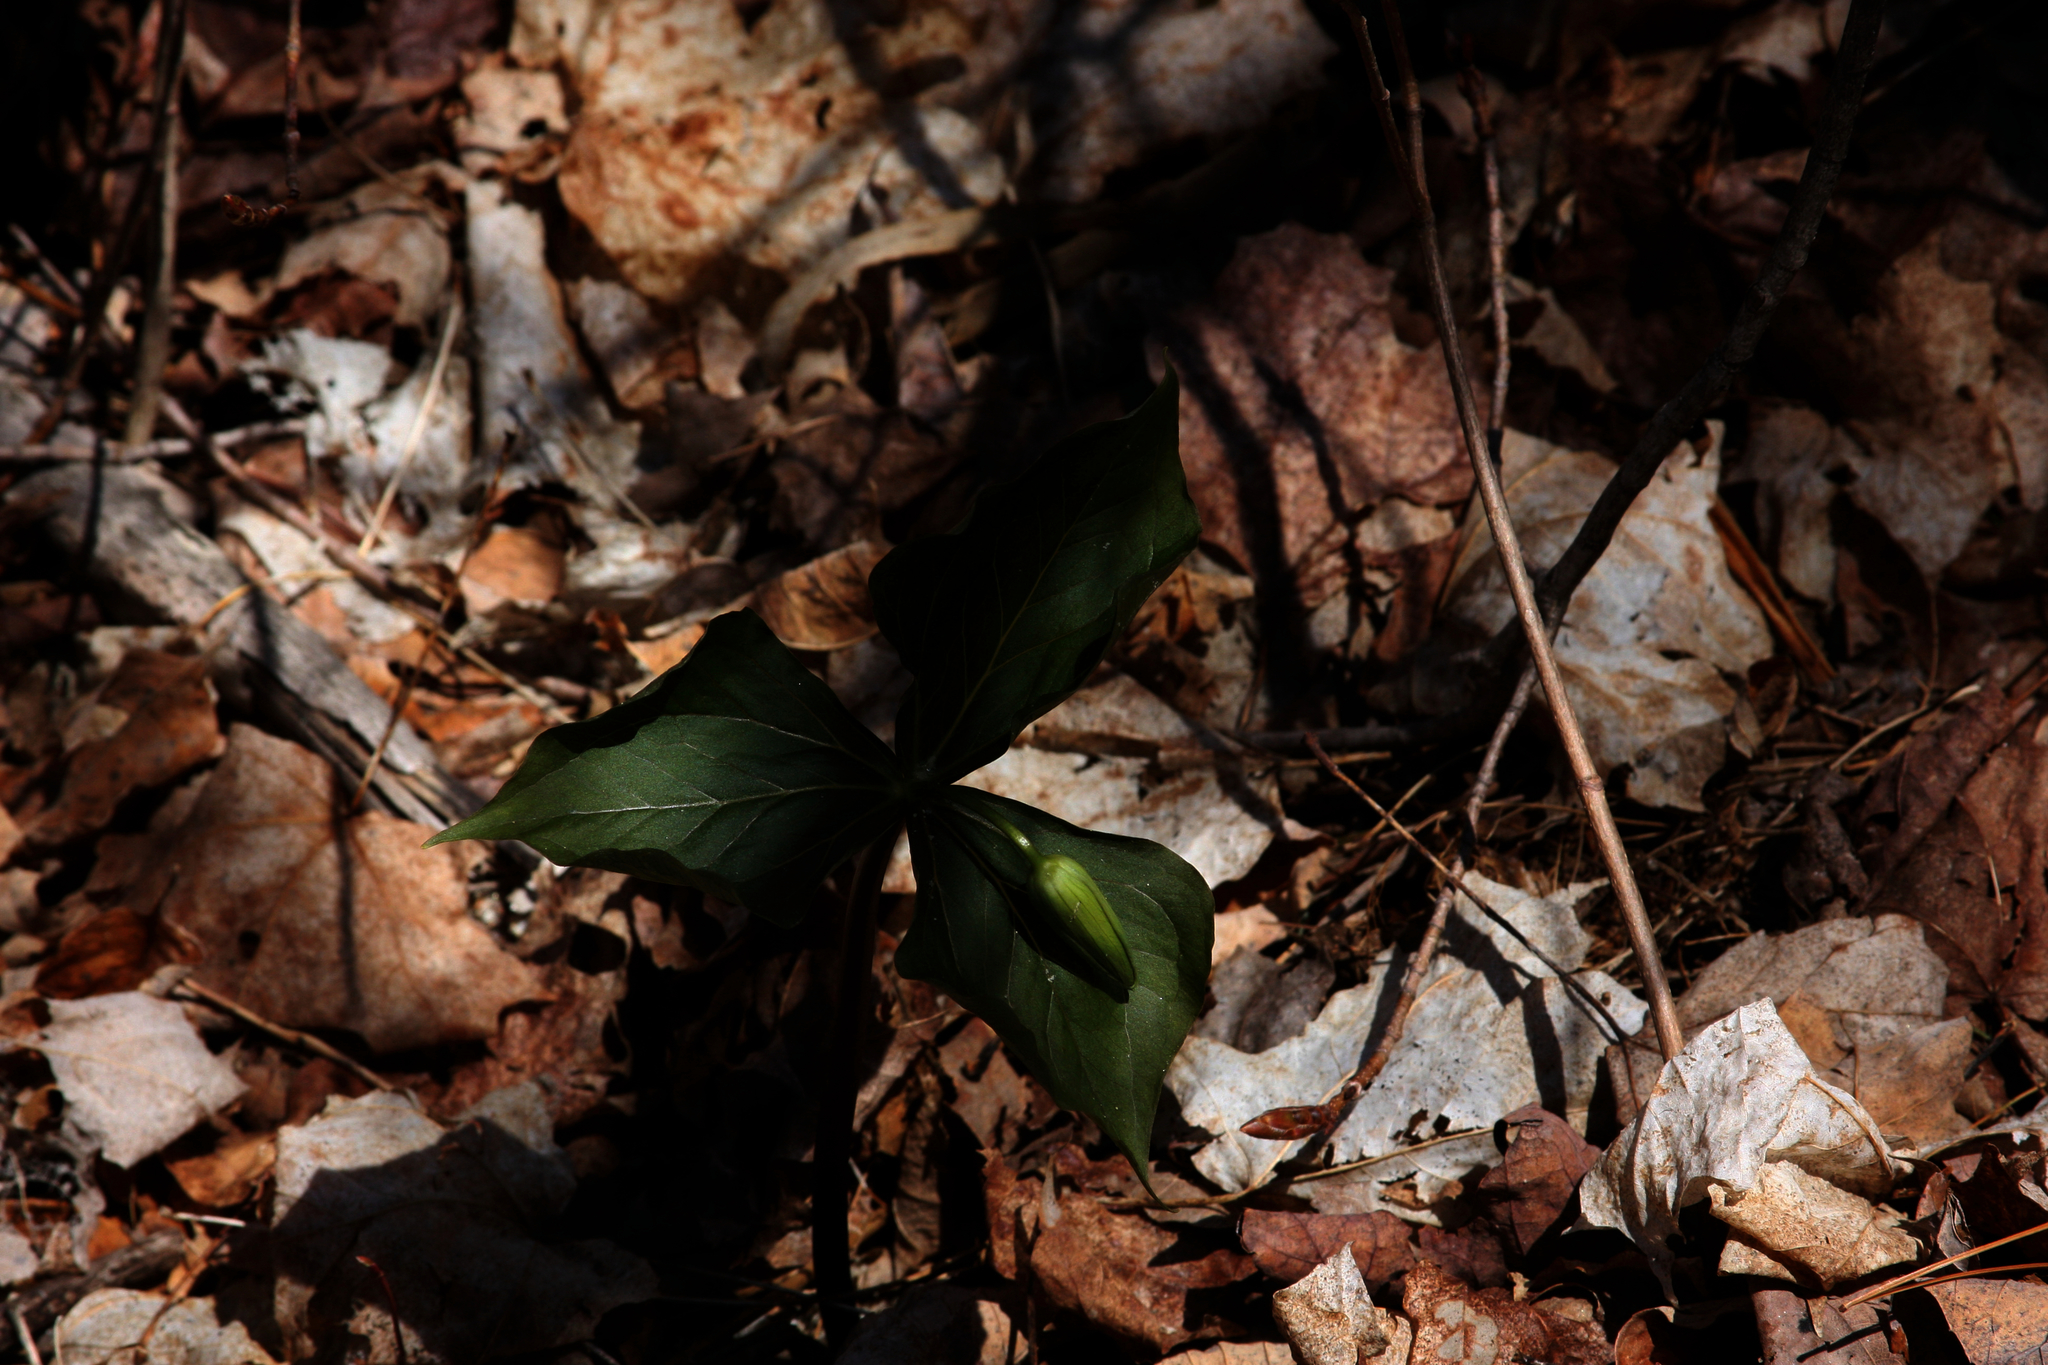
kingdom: Plantae
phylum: Tracheophyta
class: Liliopsida
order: Liliales
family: Melanthiaceae
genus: Trillium
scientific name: Trillium erectum
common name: Purple trillium
